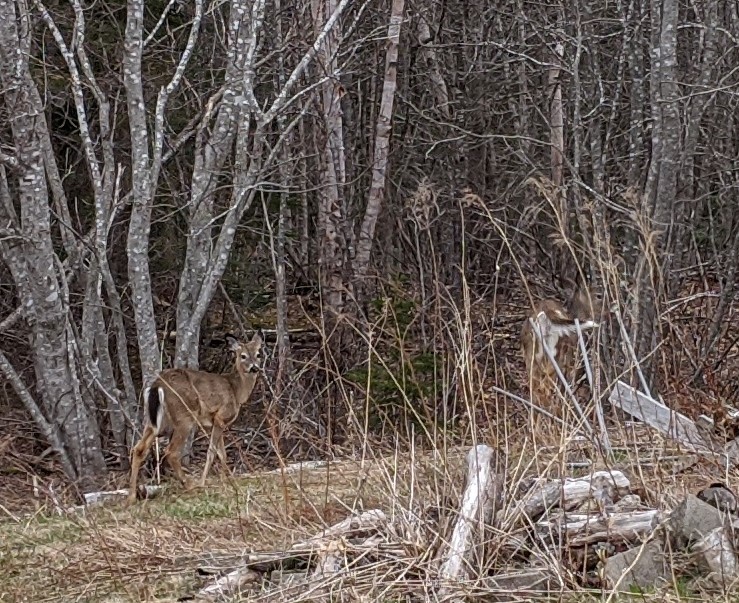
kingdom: Animalia
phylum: Chordata
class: Mammalia
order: Artiodactyla
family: Cervidae
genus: Odocoileus
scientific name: Odocoileus virginianus
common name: White-tailed deer
